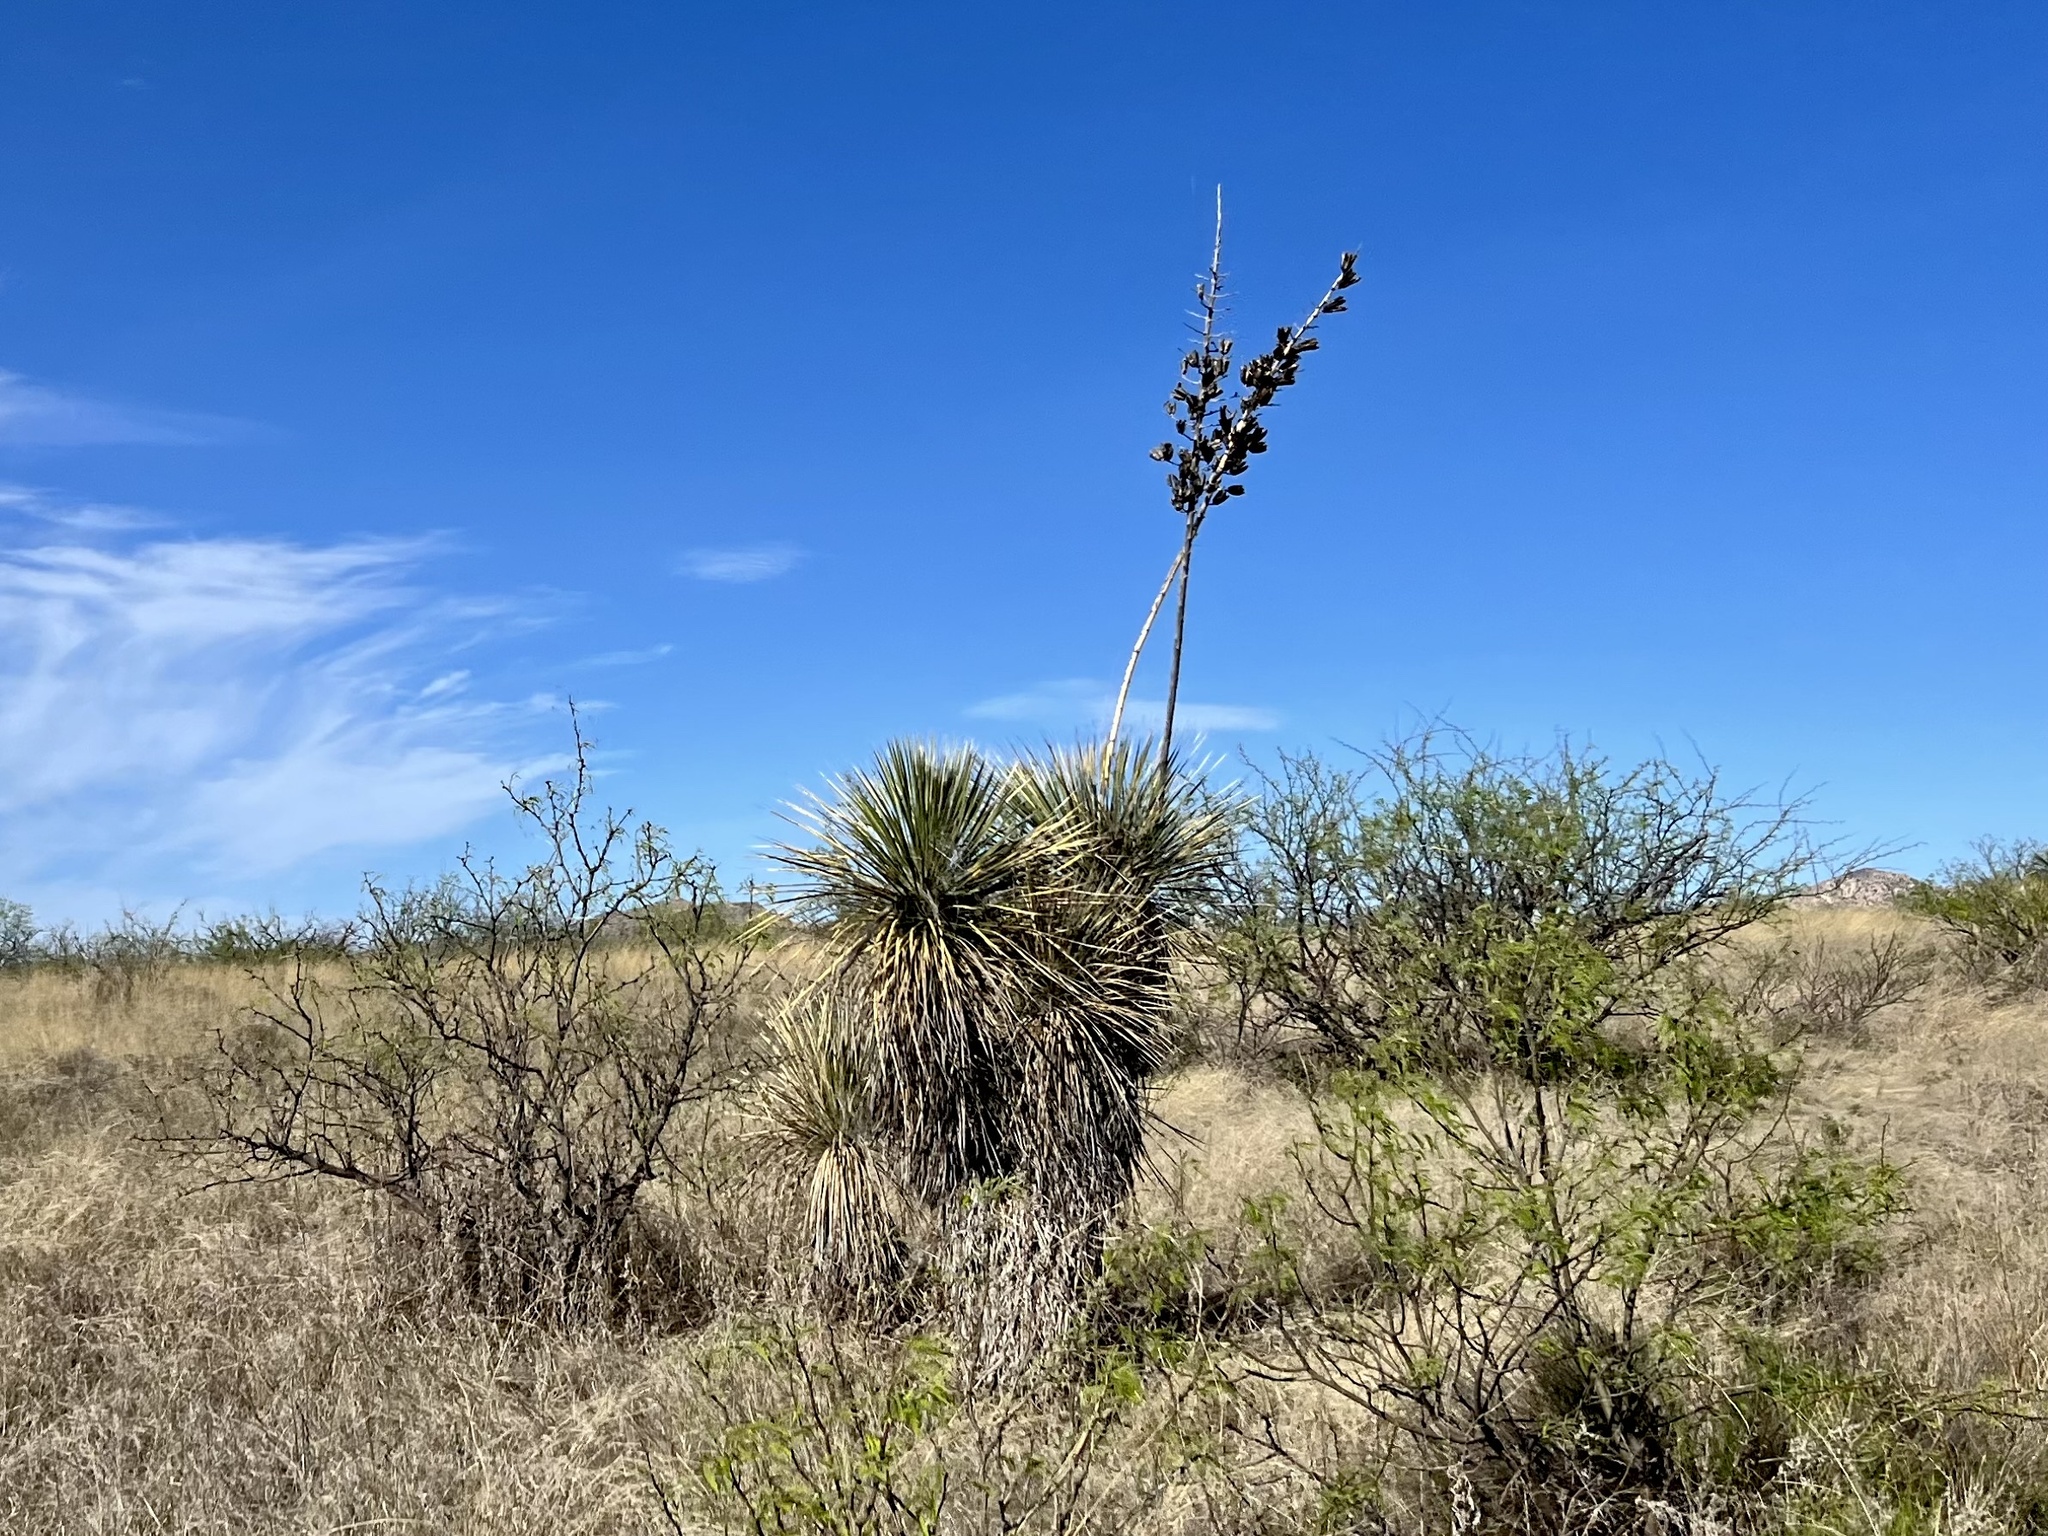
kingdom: Plantae
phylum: Tracheophyta
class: Liliopsida
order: Asparagales
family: Asparagaceae
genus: Yucca
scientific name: Yucca elata
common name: Palmella
